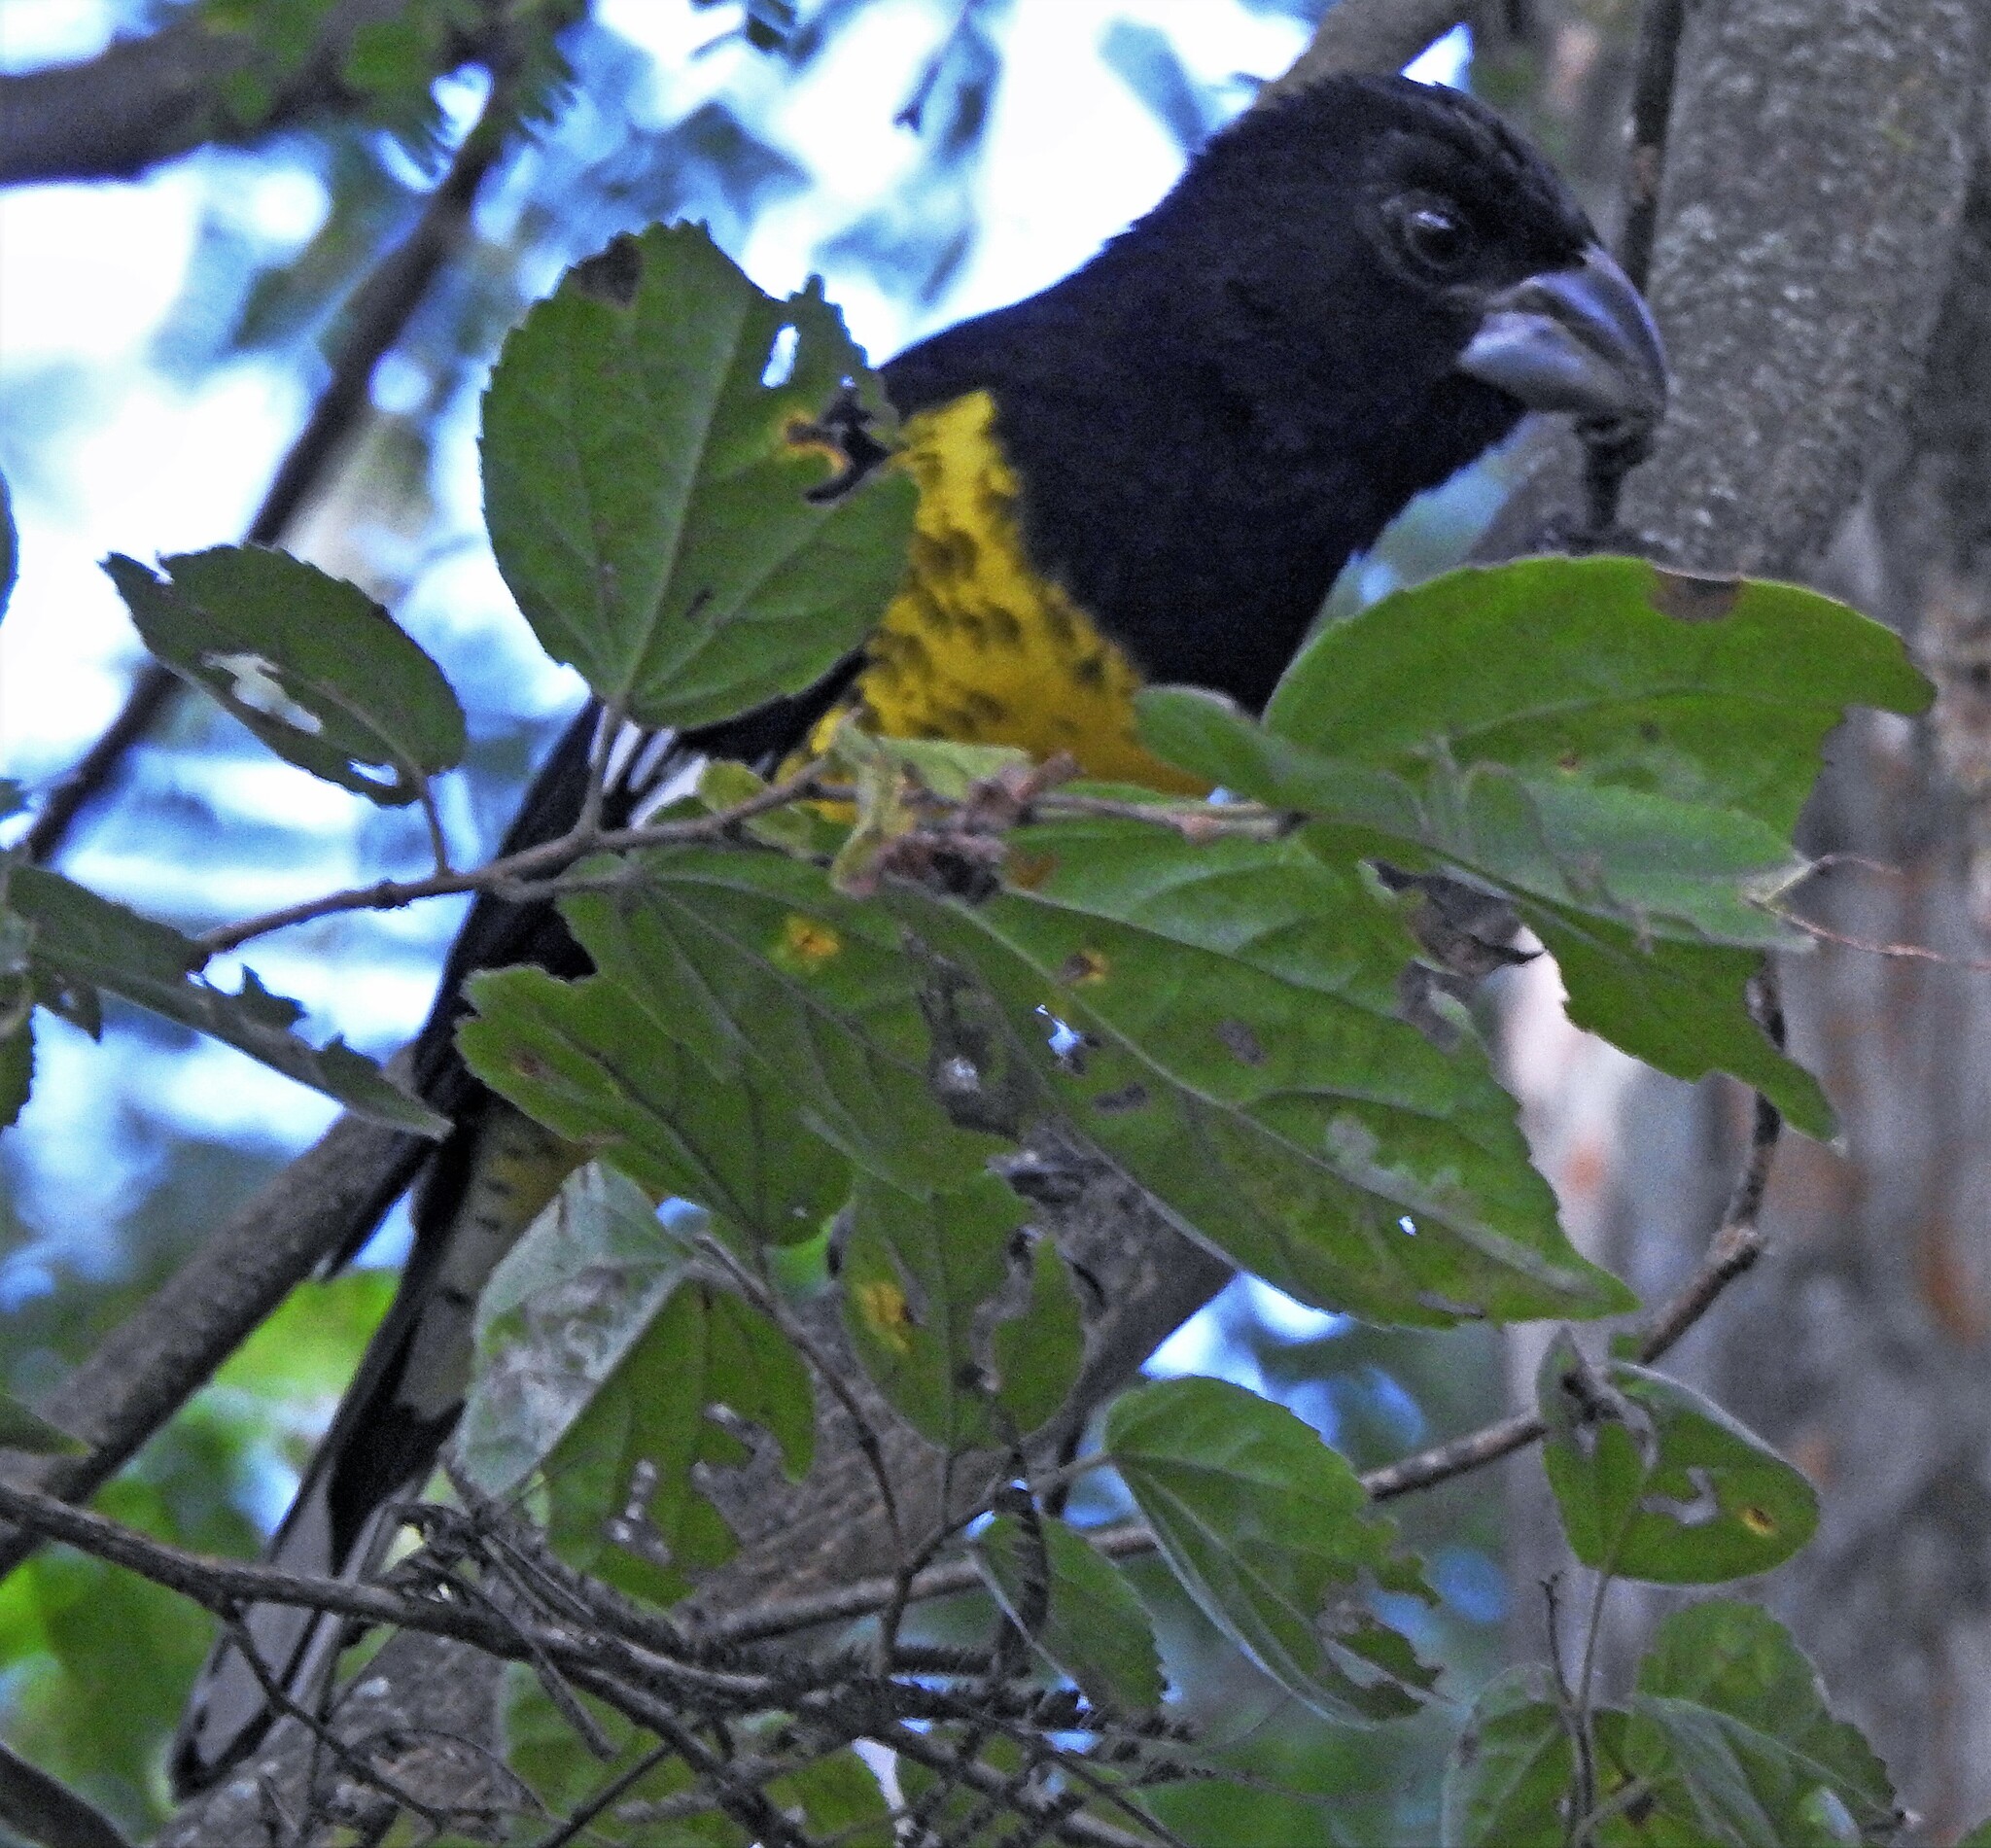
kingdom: Animalia
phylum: Chordata
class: Aves
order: Passeriformes
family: Cardinalidae
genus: Pheucticus
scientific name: Pheucticus aureoventris
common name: Black-backed grosbeak
